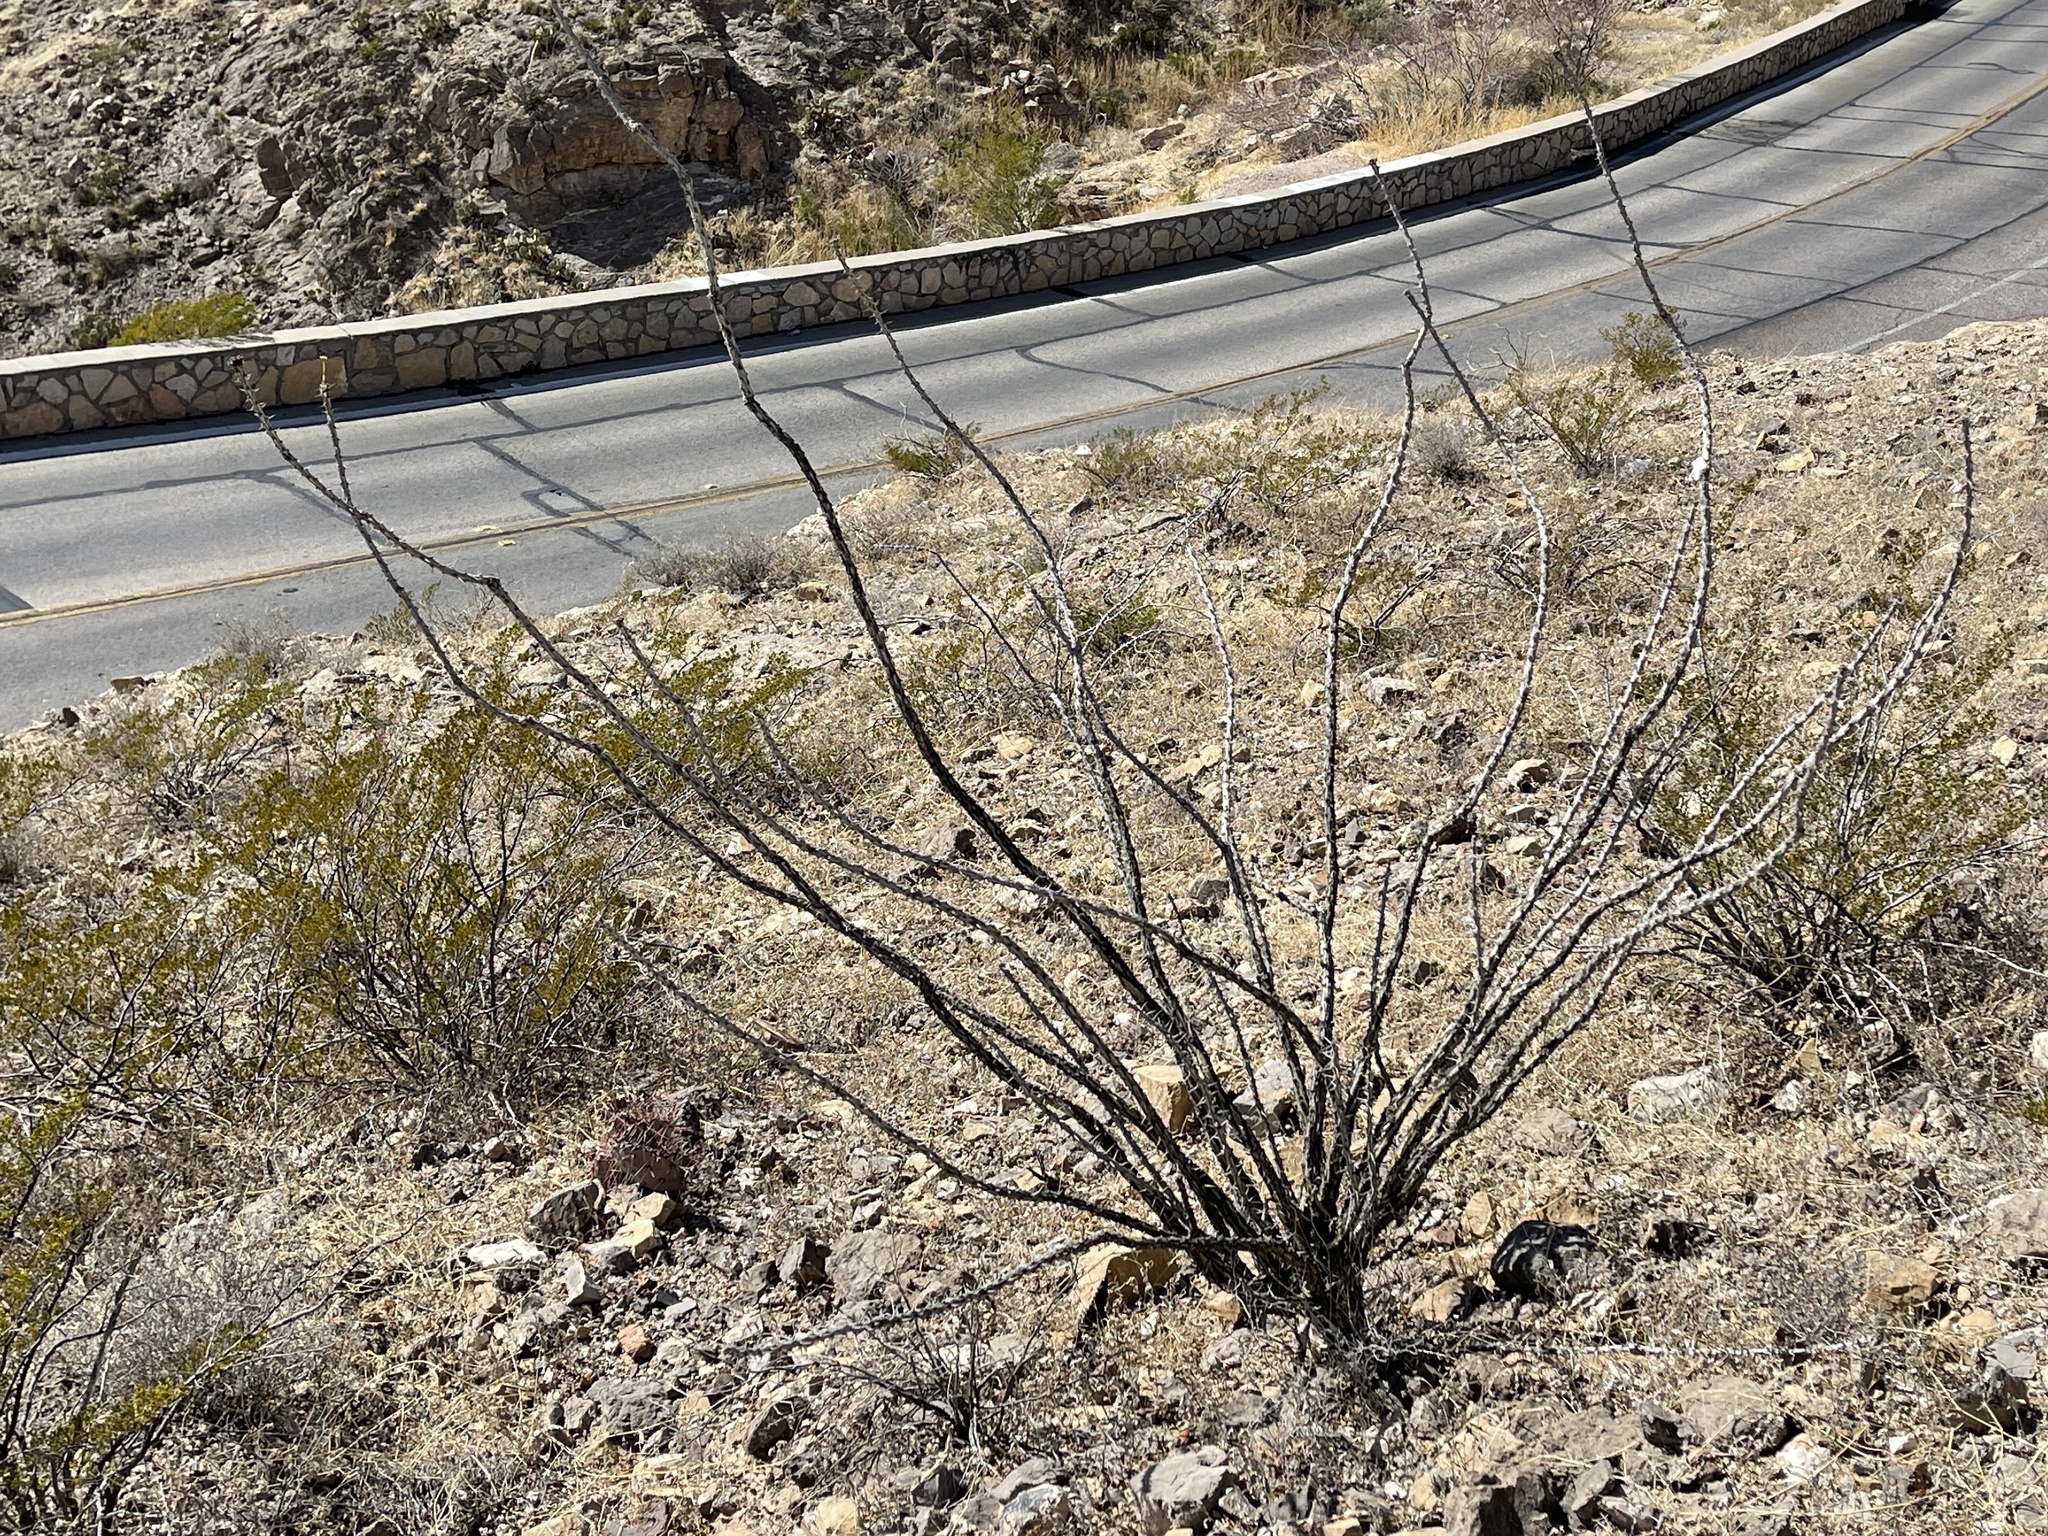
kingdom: Plantae
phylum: Tracheophyta
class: Magnoliopsida
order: Ericales
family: Fouquieriaceae
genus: Fouquieria
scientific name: Fouquieria splendens
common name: Vine-cactus
